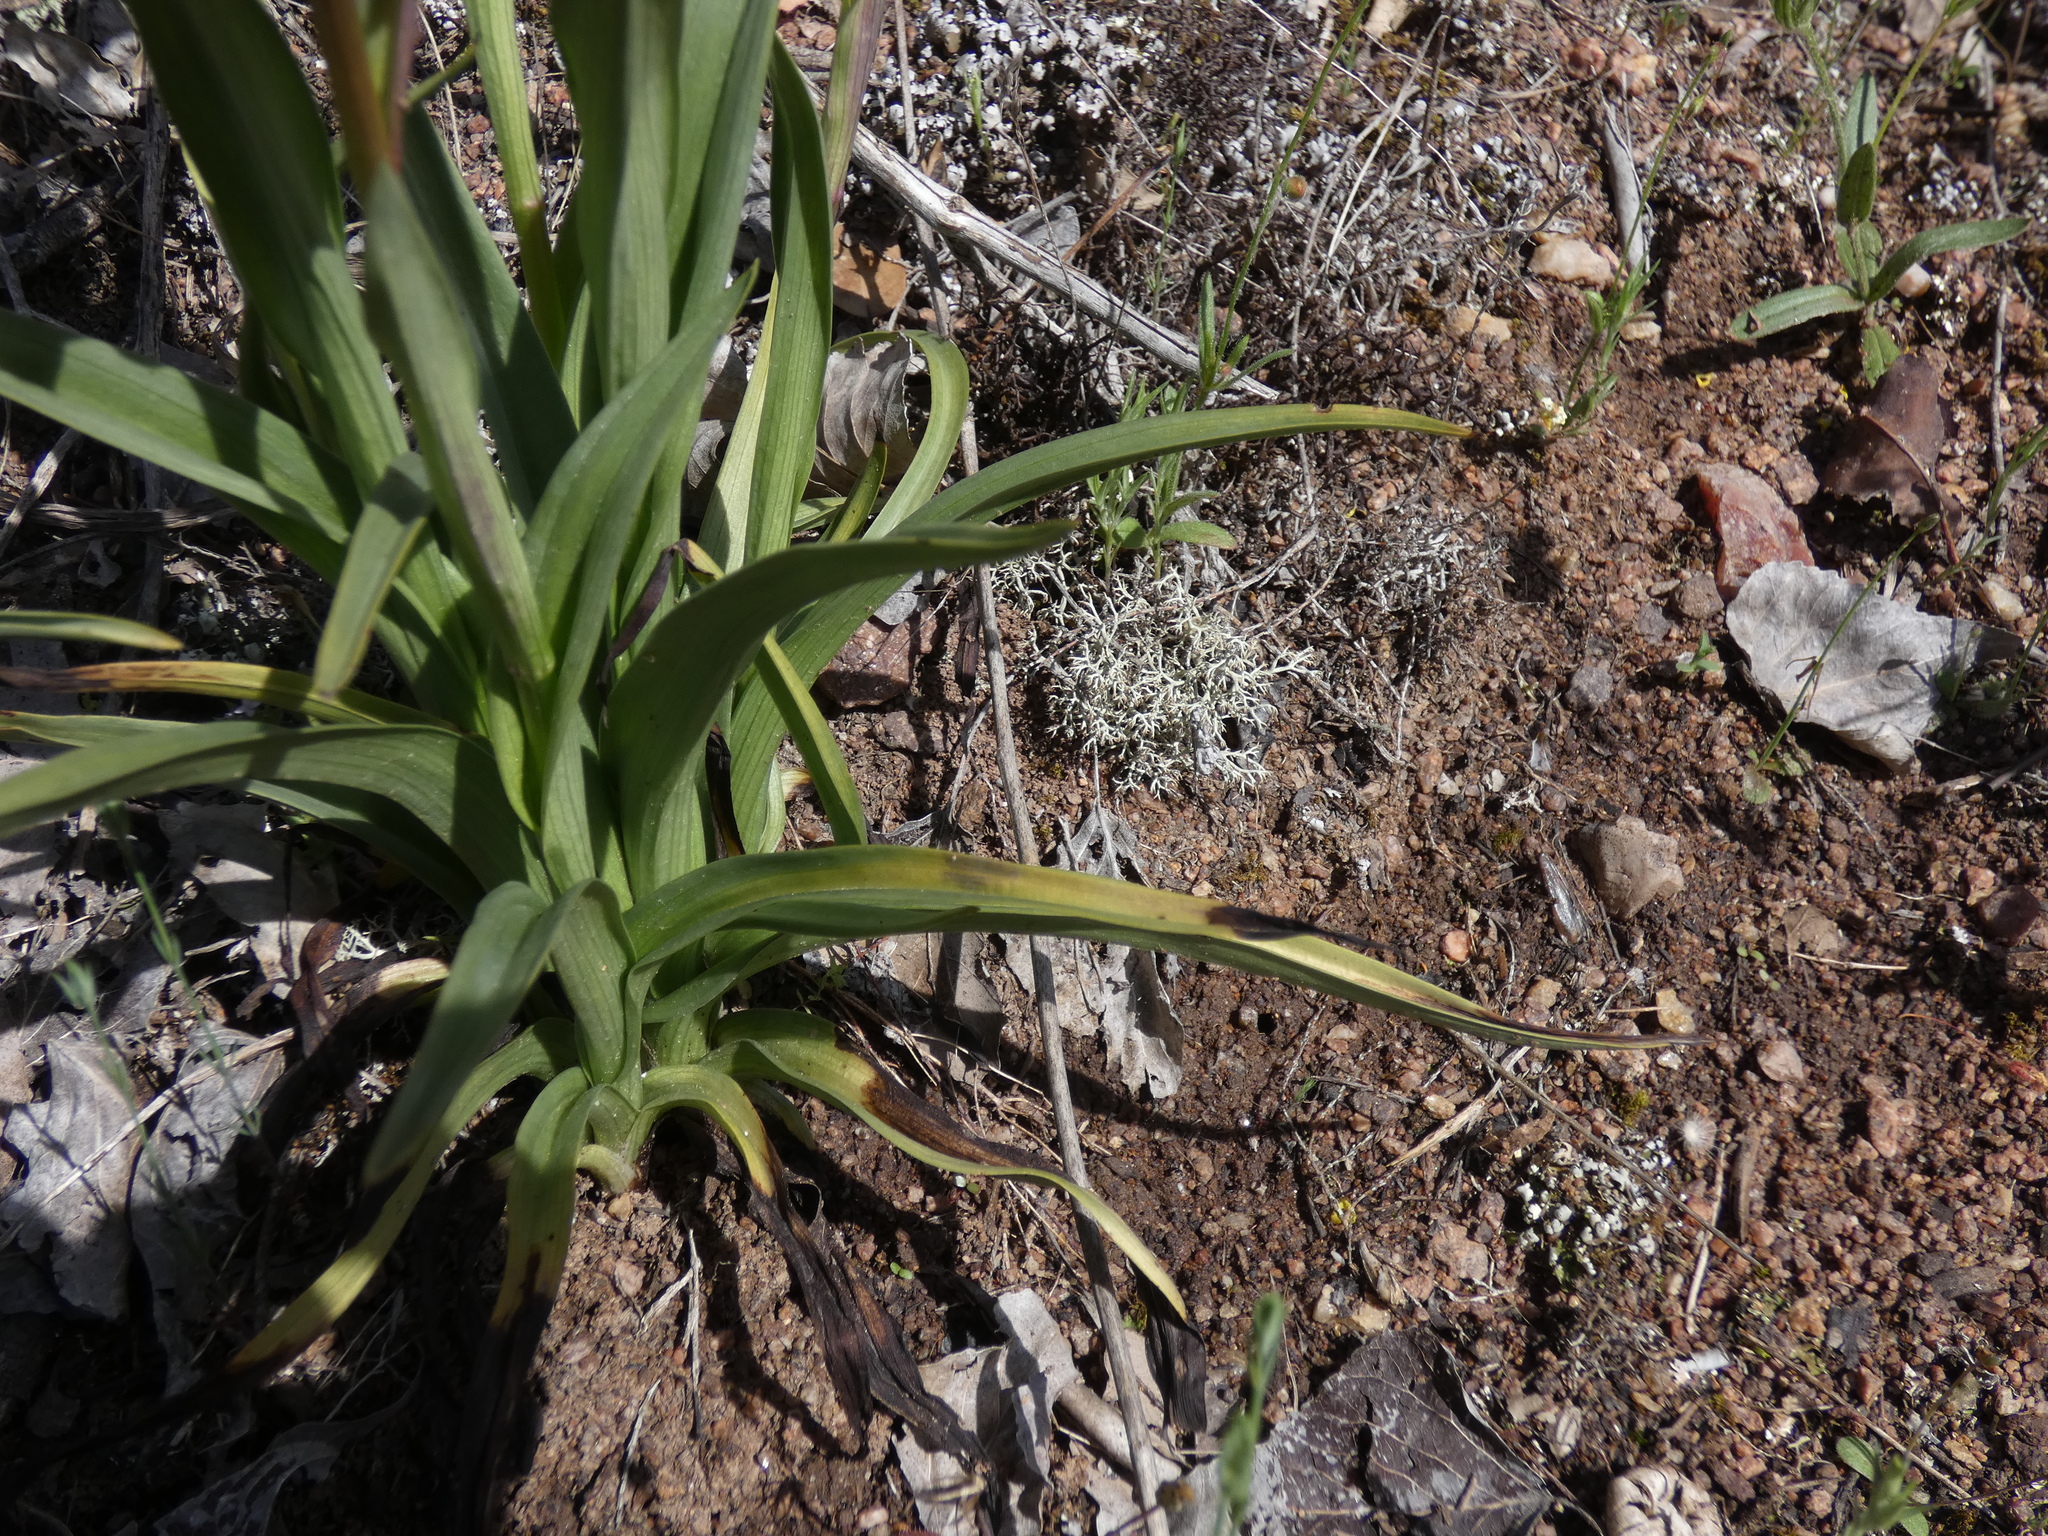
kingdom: Plantae
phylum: Tracheophyta
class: Liliopsida
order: Asparagales
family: Orchidaceae
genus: Serapias
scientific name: Serapias cordigera
